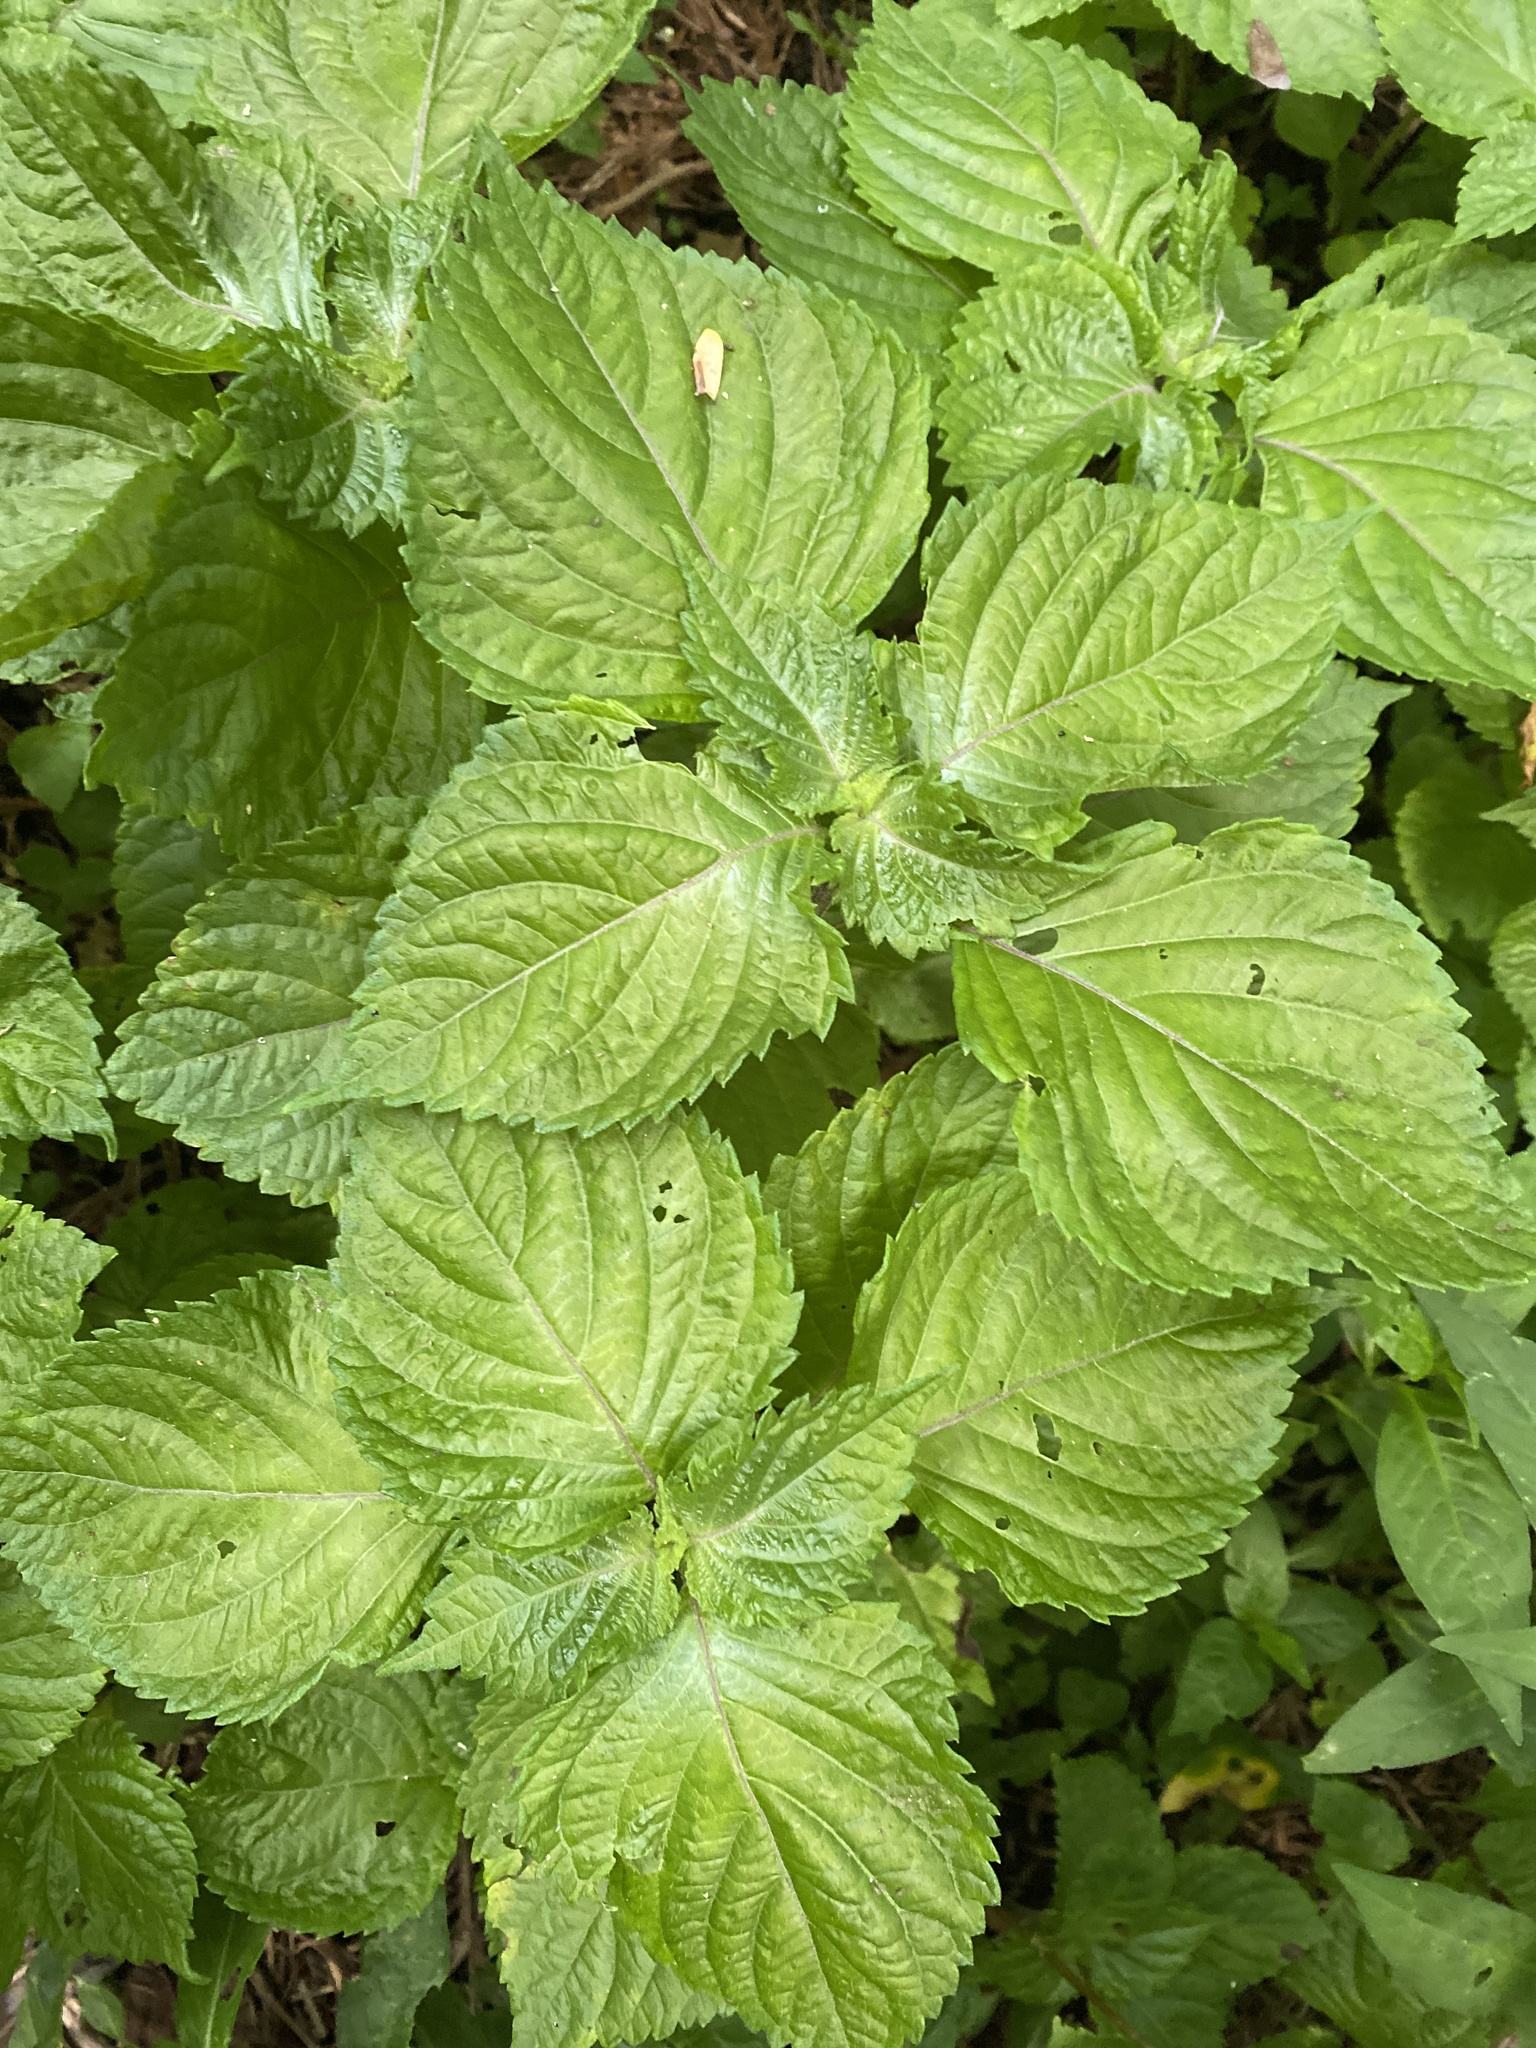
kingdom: Plantae
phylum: Tracheophyta
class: Magnoliopsida
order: Lamiales
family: Lamiaceae
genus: Perilla
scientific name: Perilla frutescens
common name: Perilla
